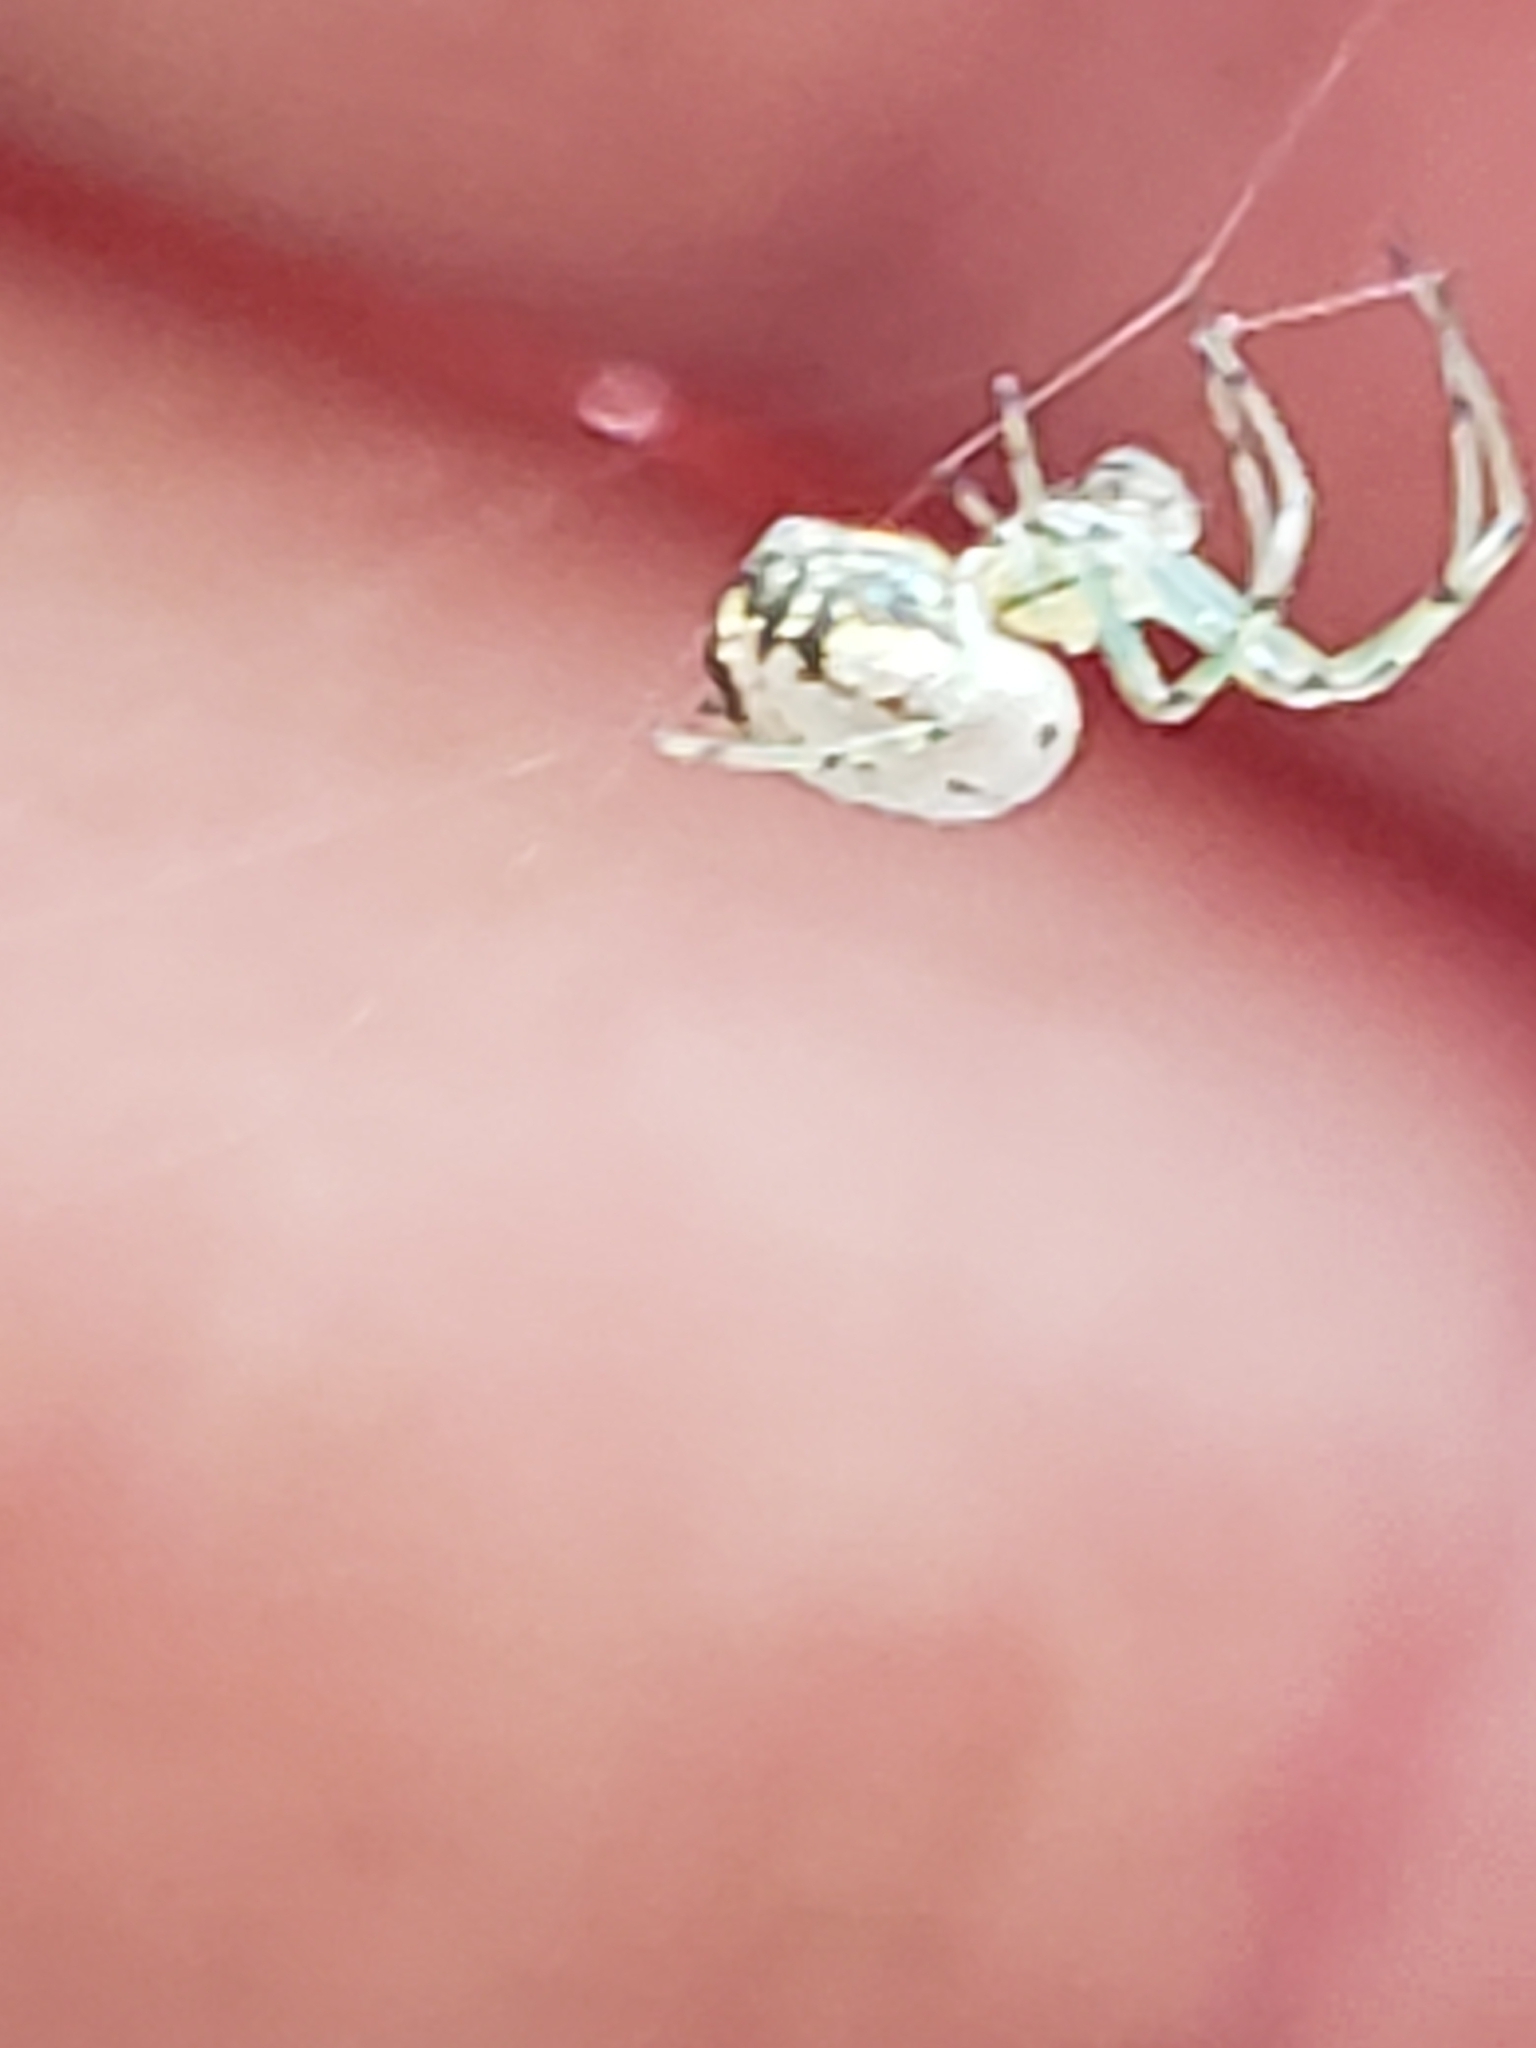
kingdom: Animalia
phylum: Arthropoda
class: Arachnida
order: Araneae
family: Tetragnathidae
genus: Leucauge
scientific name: Leucauge venusta
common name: Longjawed orb weavers
